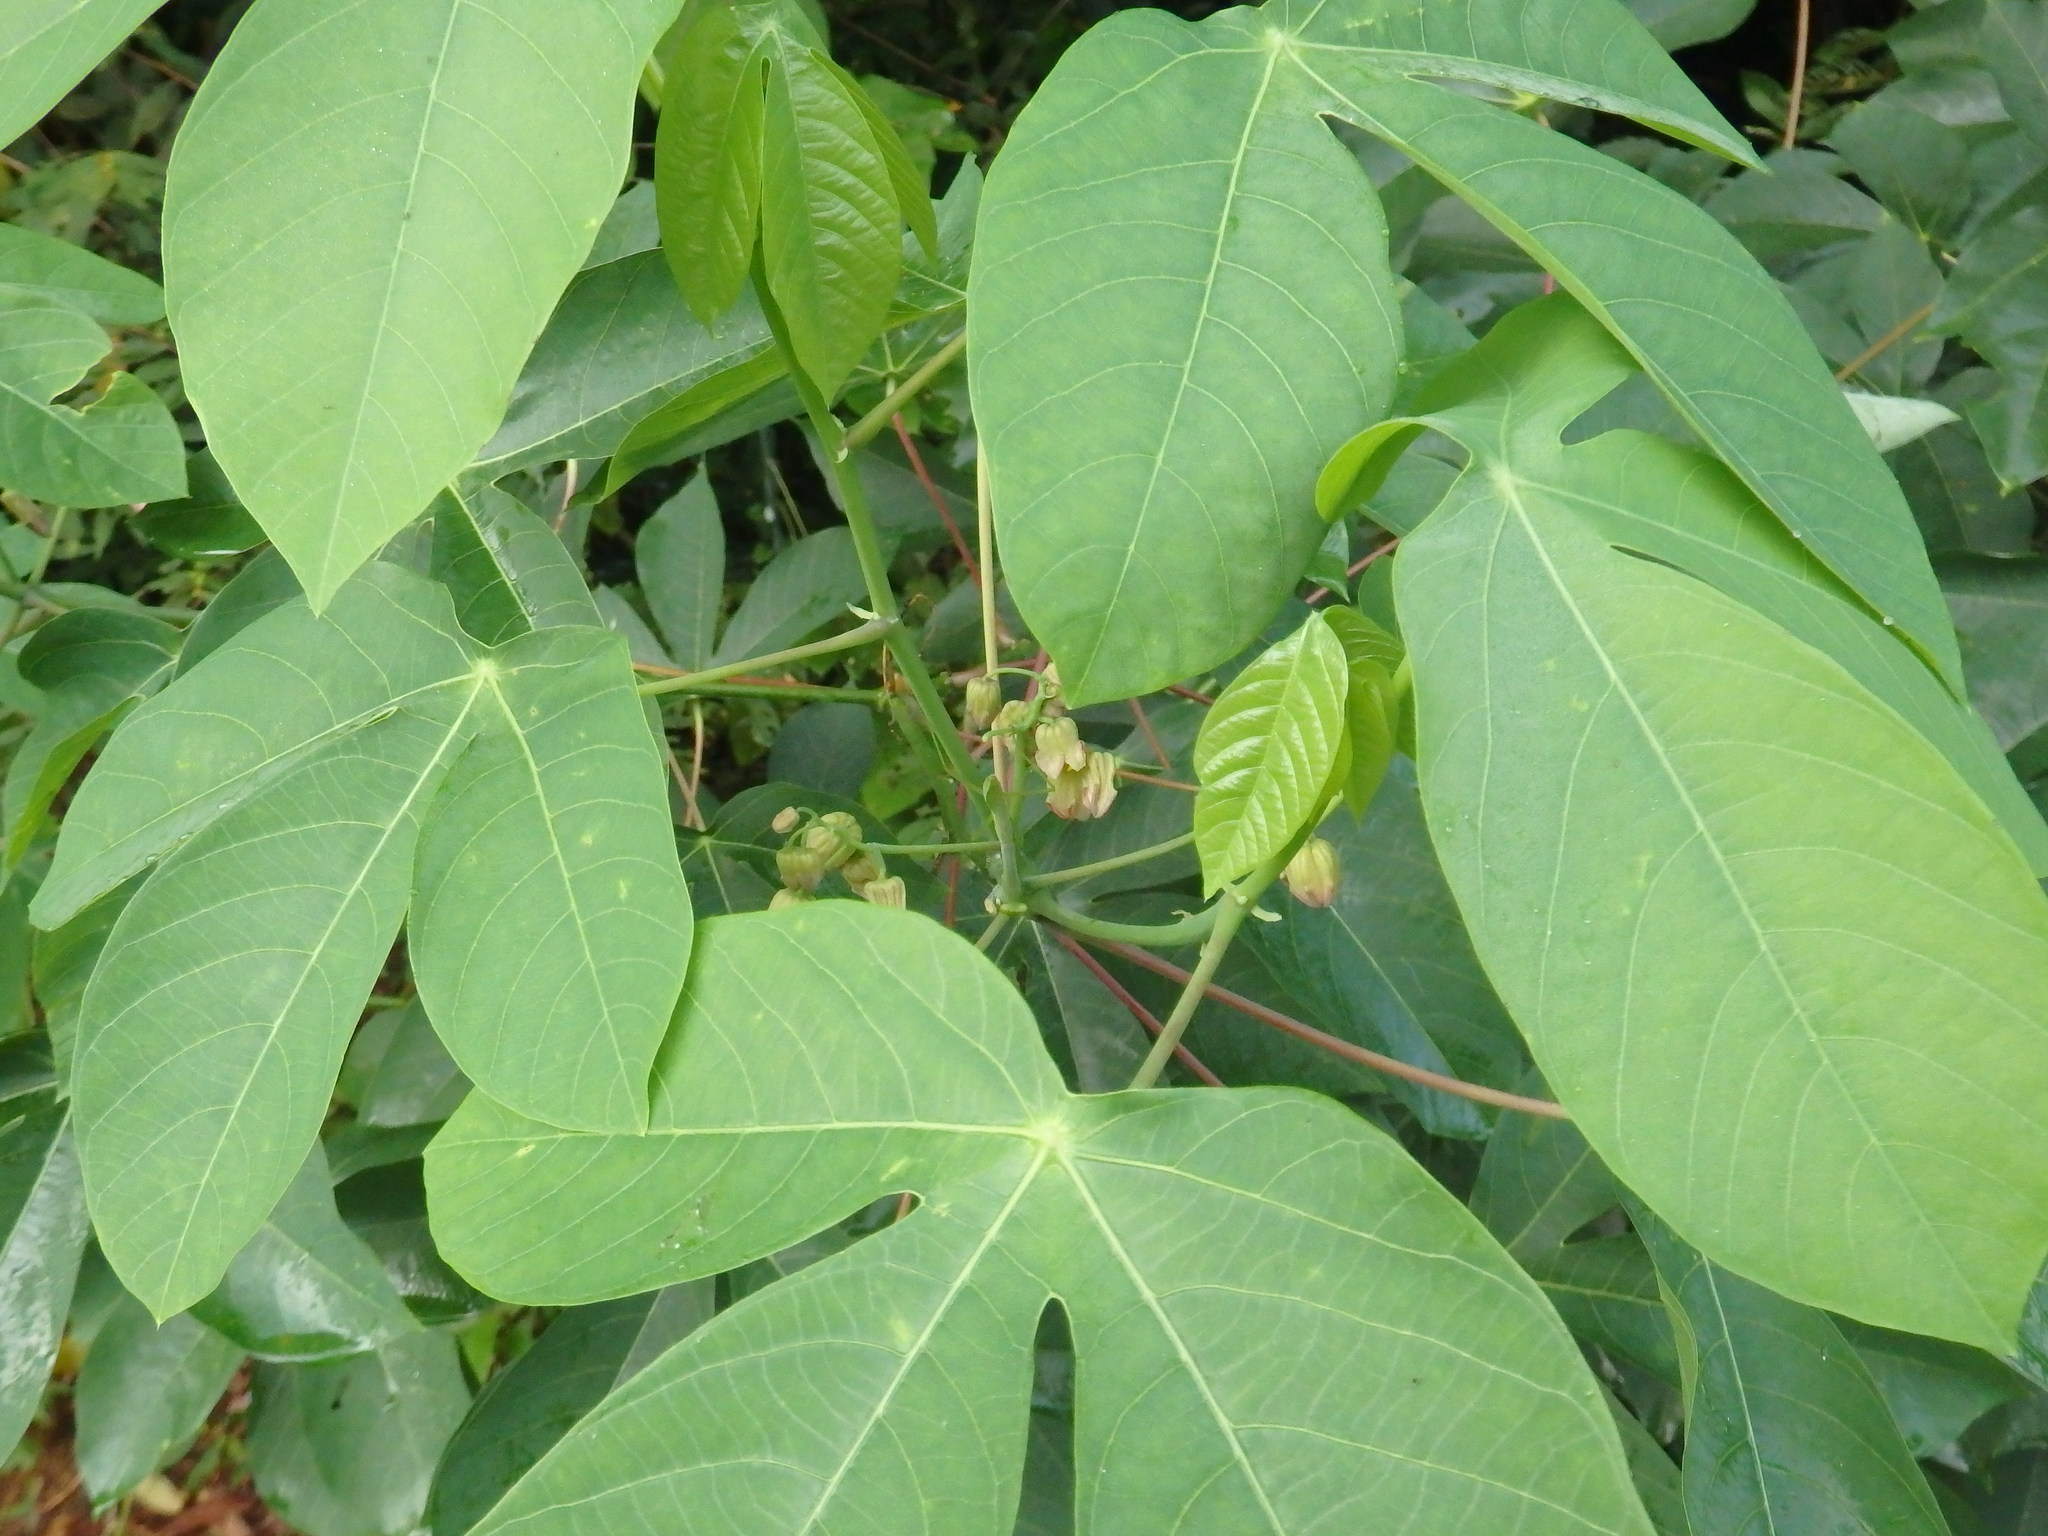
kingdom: Plantae
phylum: Tracheophyta
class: Magnoliopsida
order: Malpighiales
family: Euphorbiaceae
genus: Manihot
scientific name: Manihot carthagenensis
